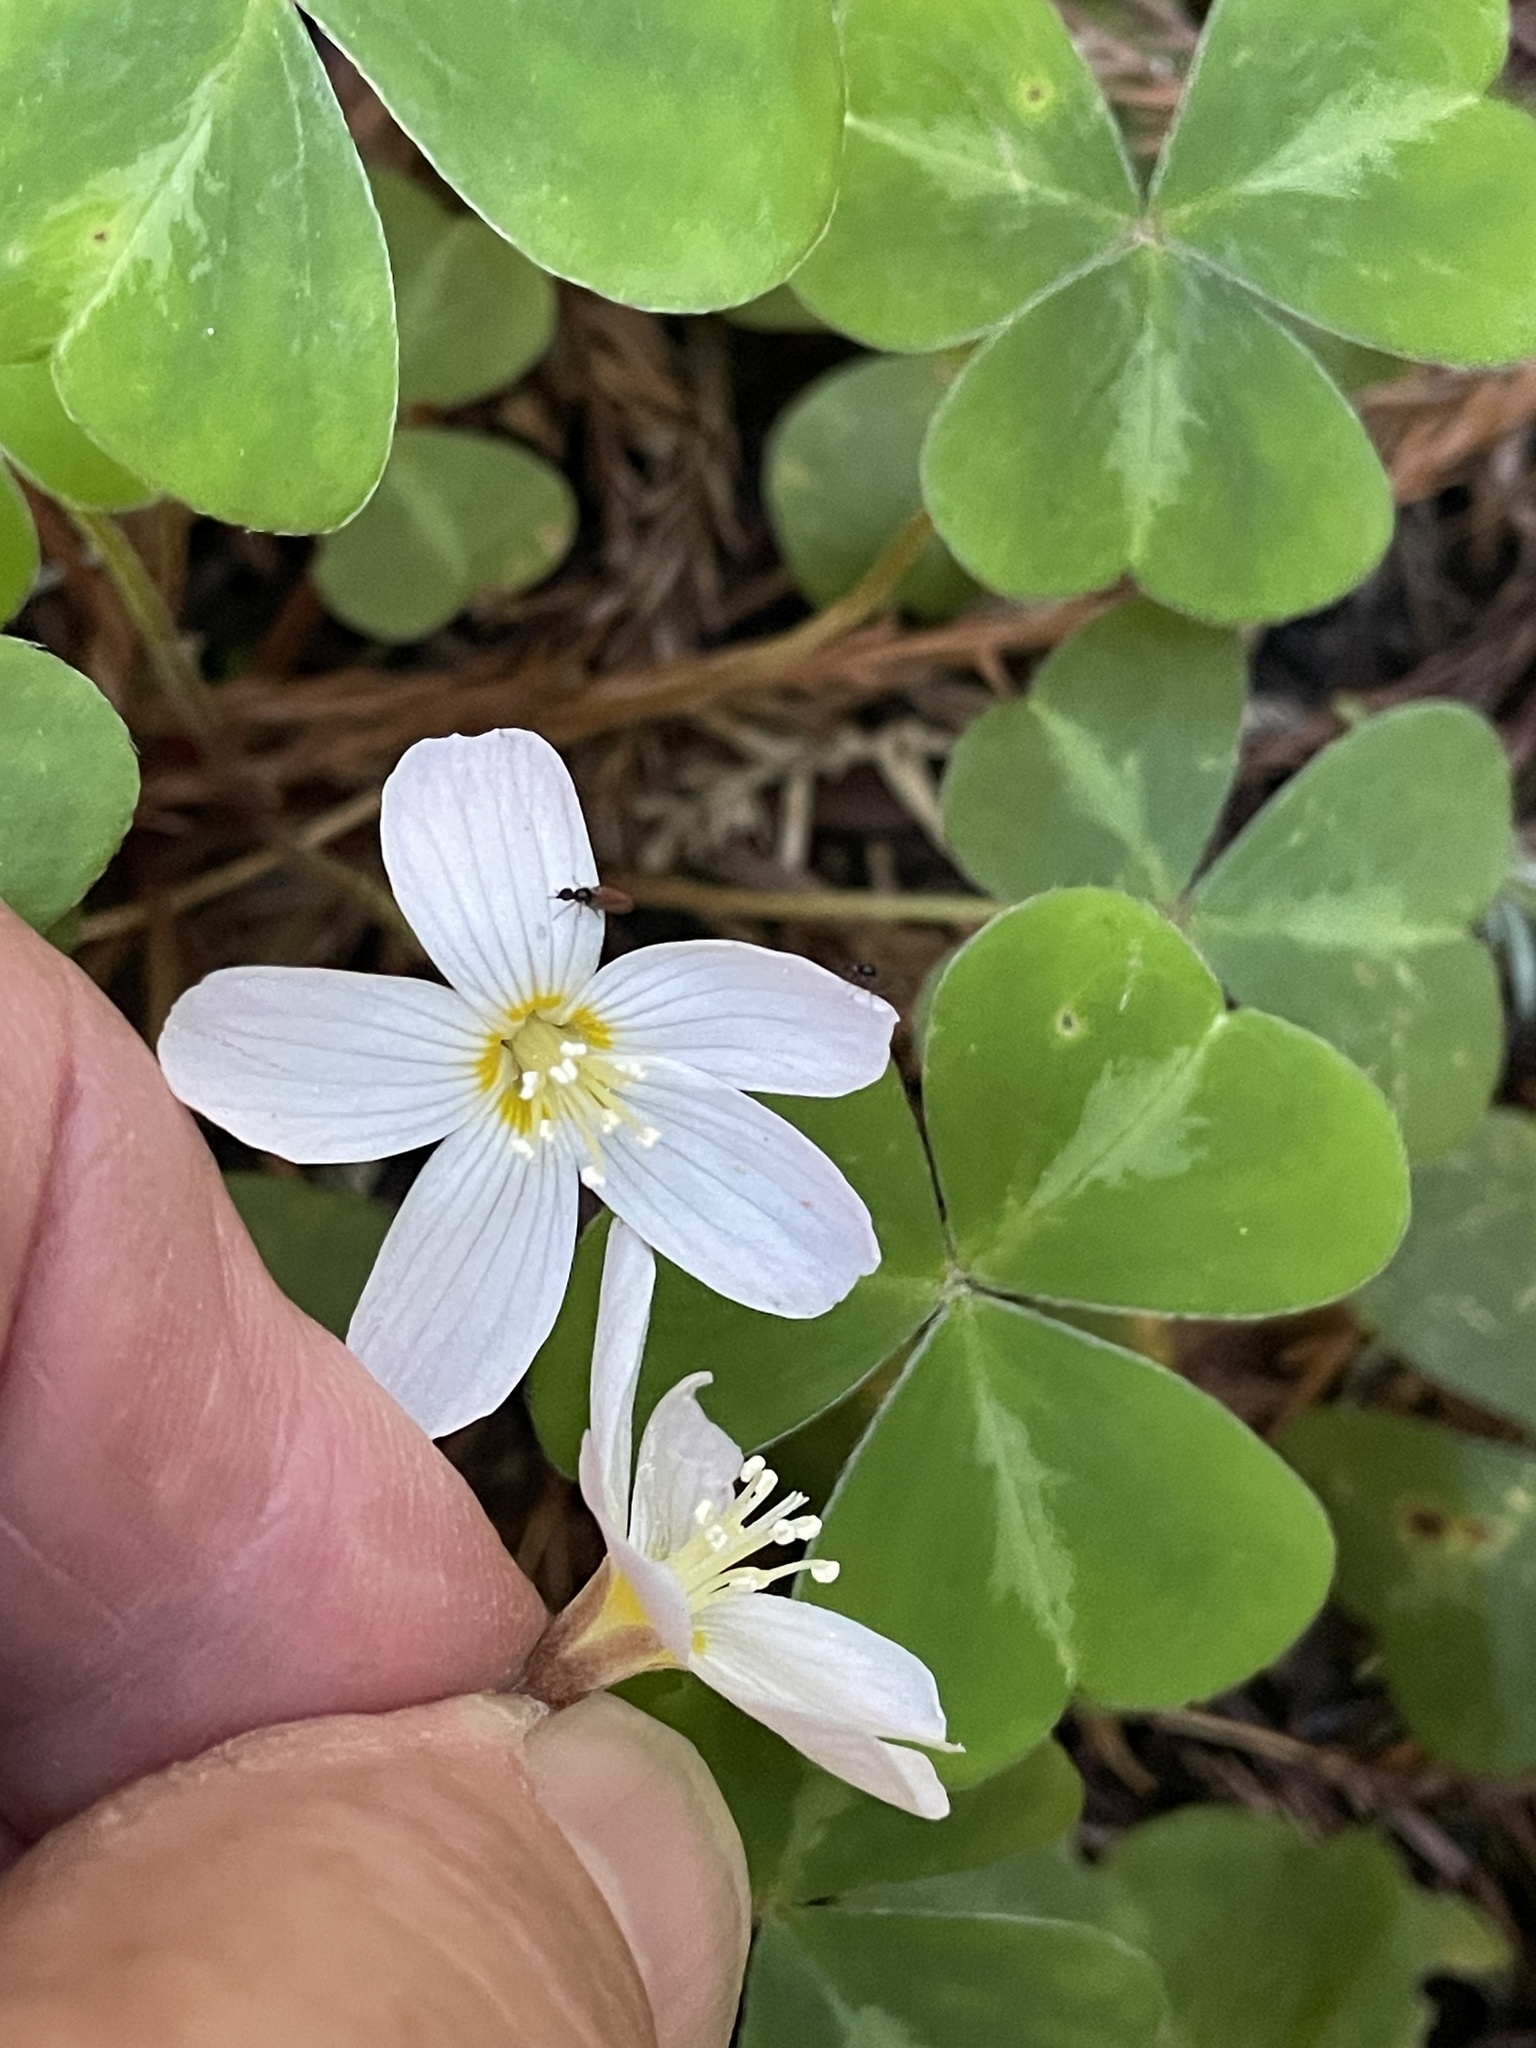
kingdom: Plantae
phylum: Tracheophyta
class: Magnoliopsida
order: Oxalidales
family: Oxalidaceae
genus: Oxalis
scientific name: Oxalis oregana
